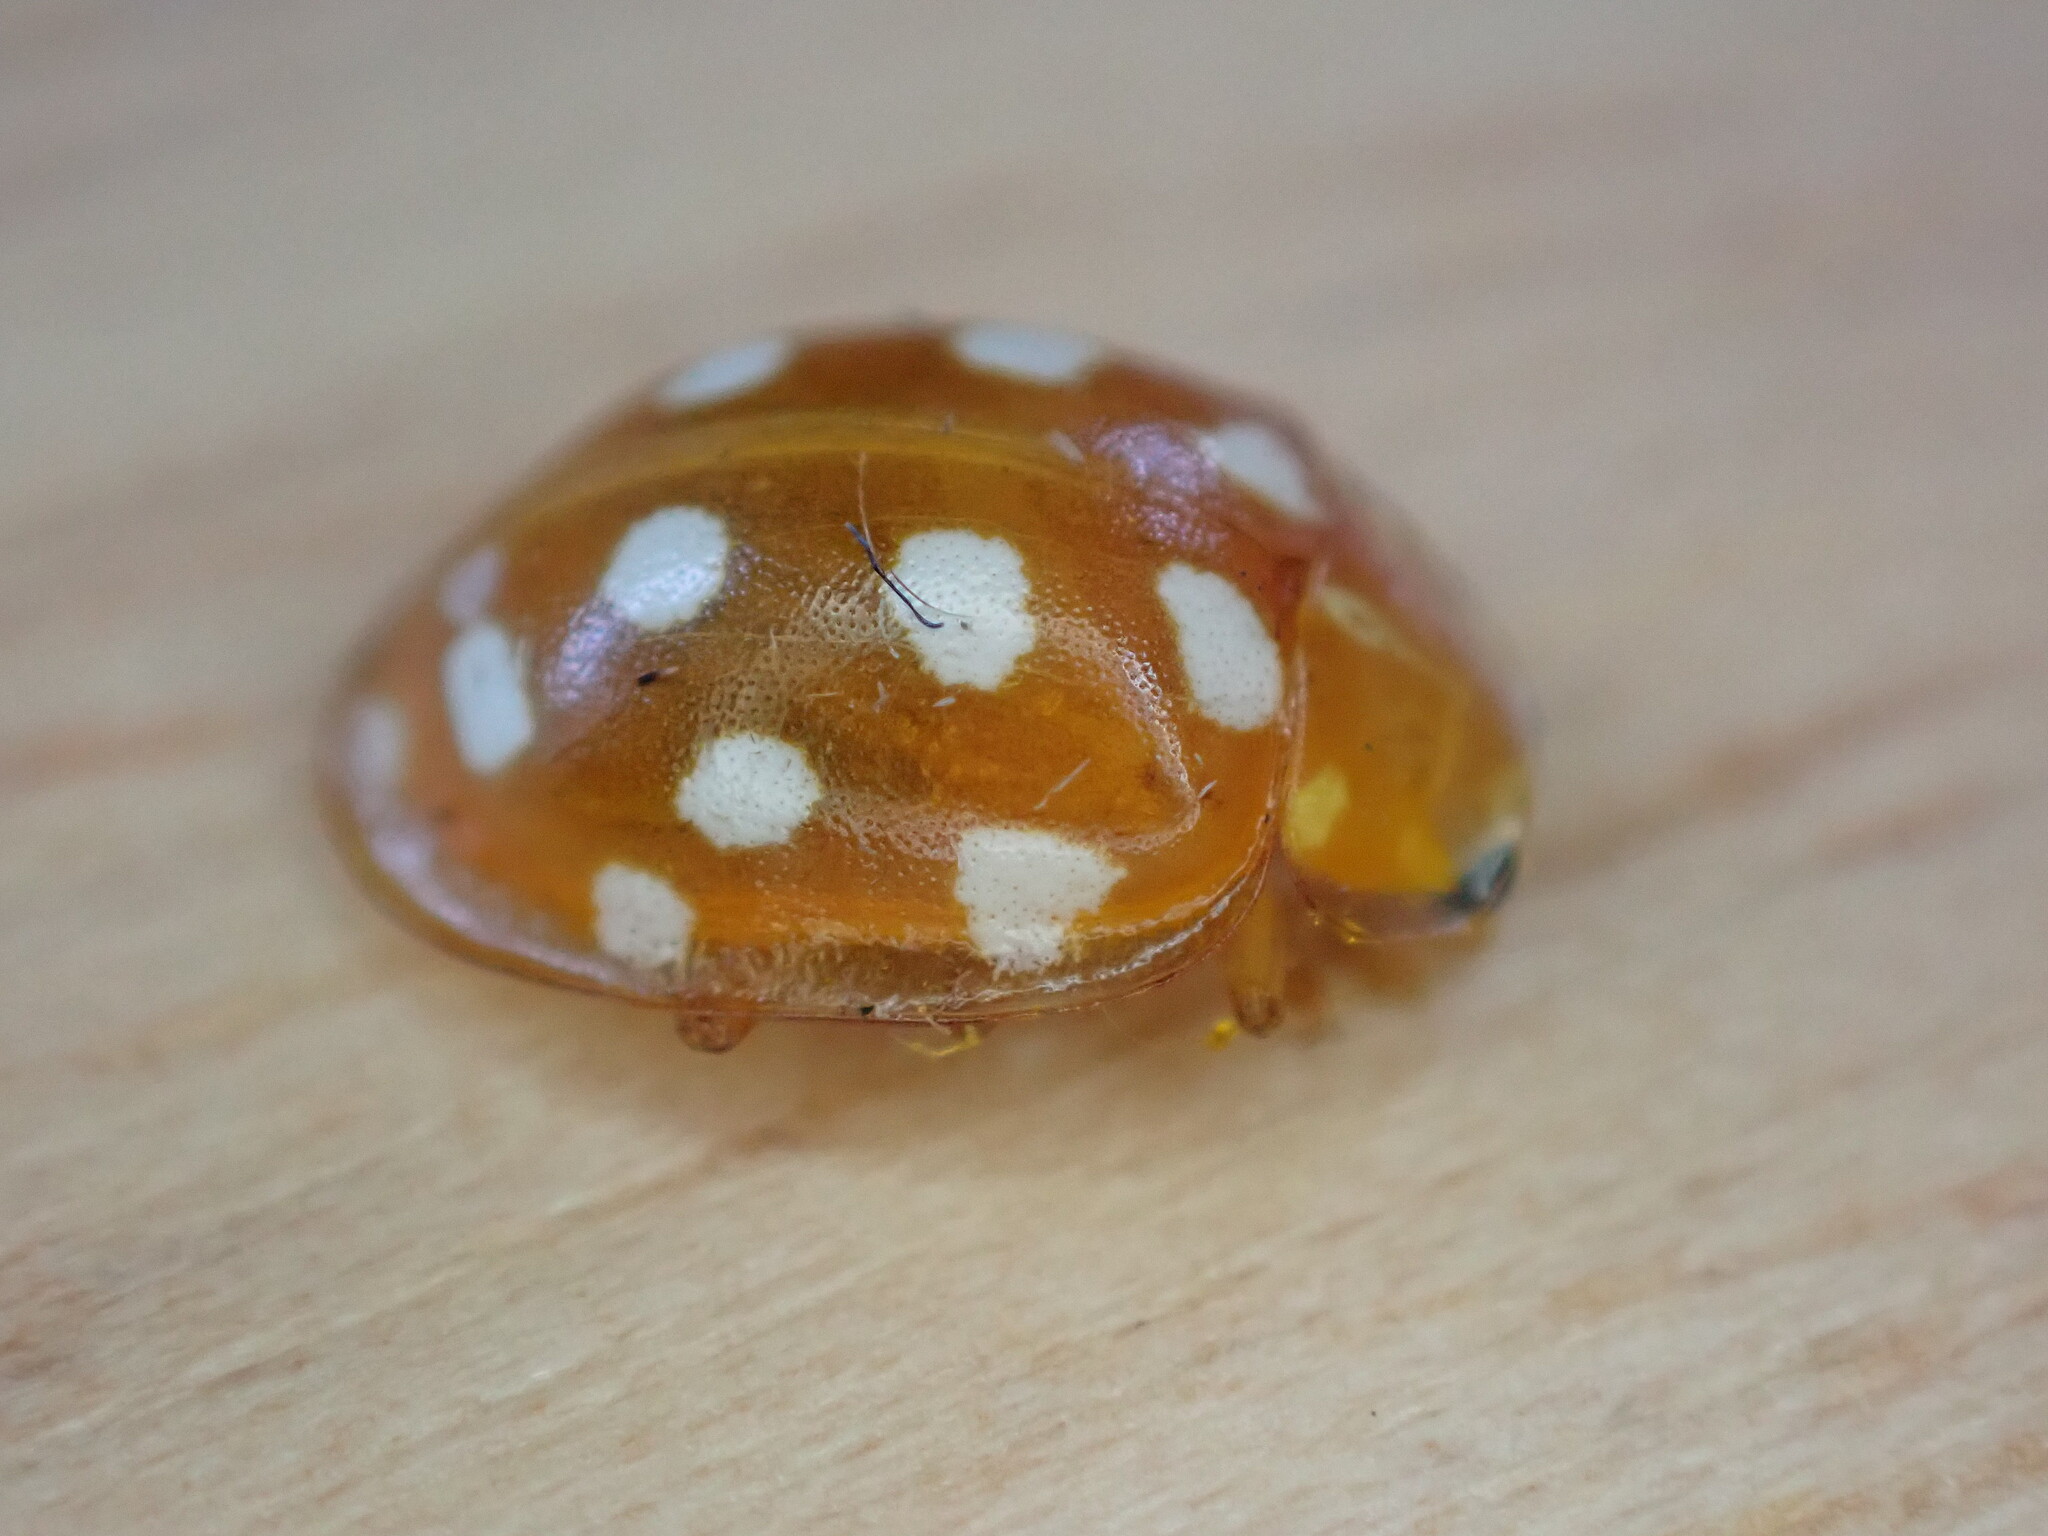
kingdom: Animalia
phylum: Arthropoda
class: Insecta
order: Coleoptera
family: Coccinellidae
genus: Halyzia
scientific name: Halyzia sedecimguttata
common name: Orange ladybird
